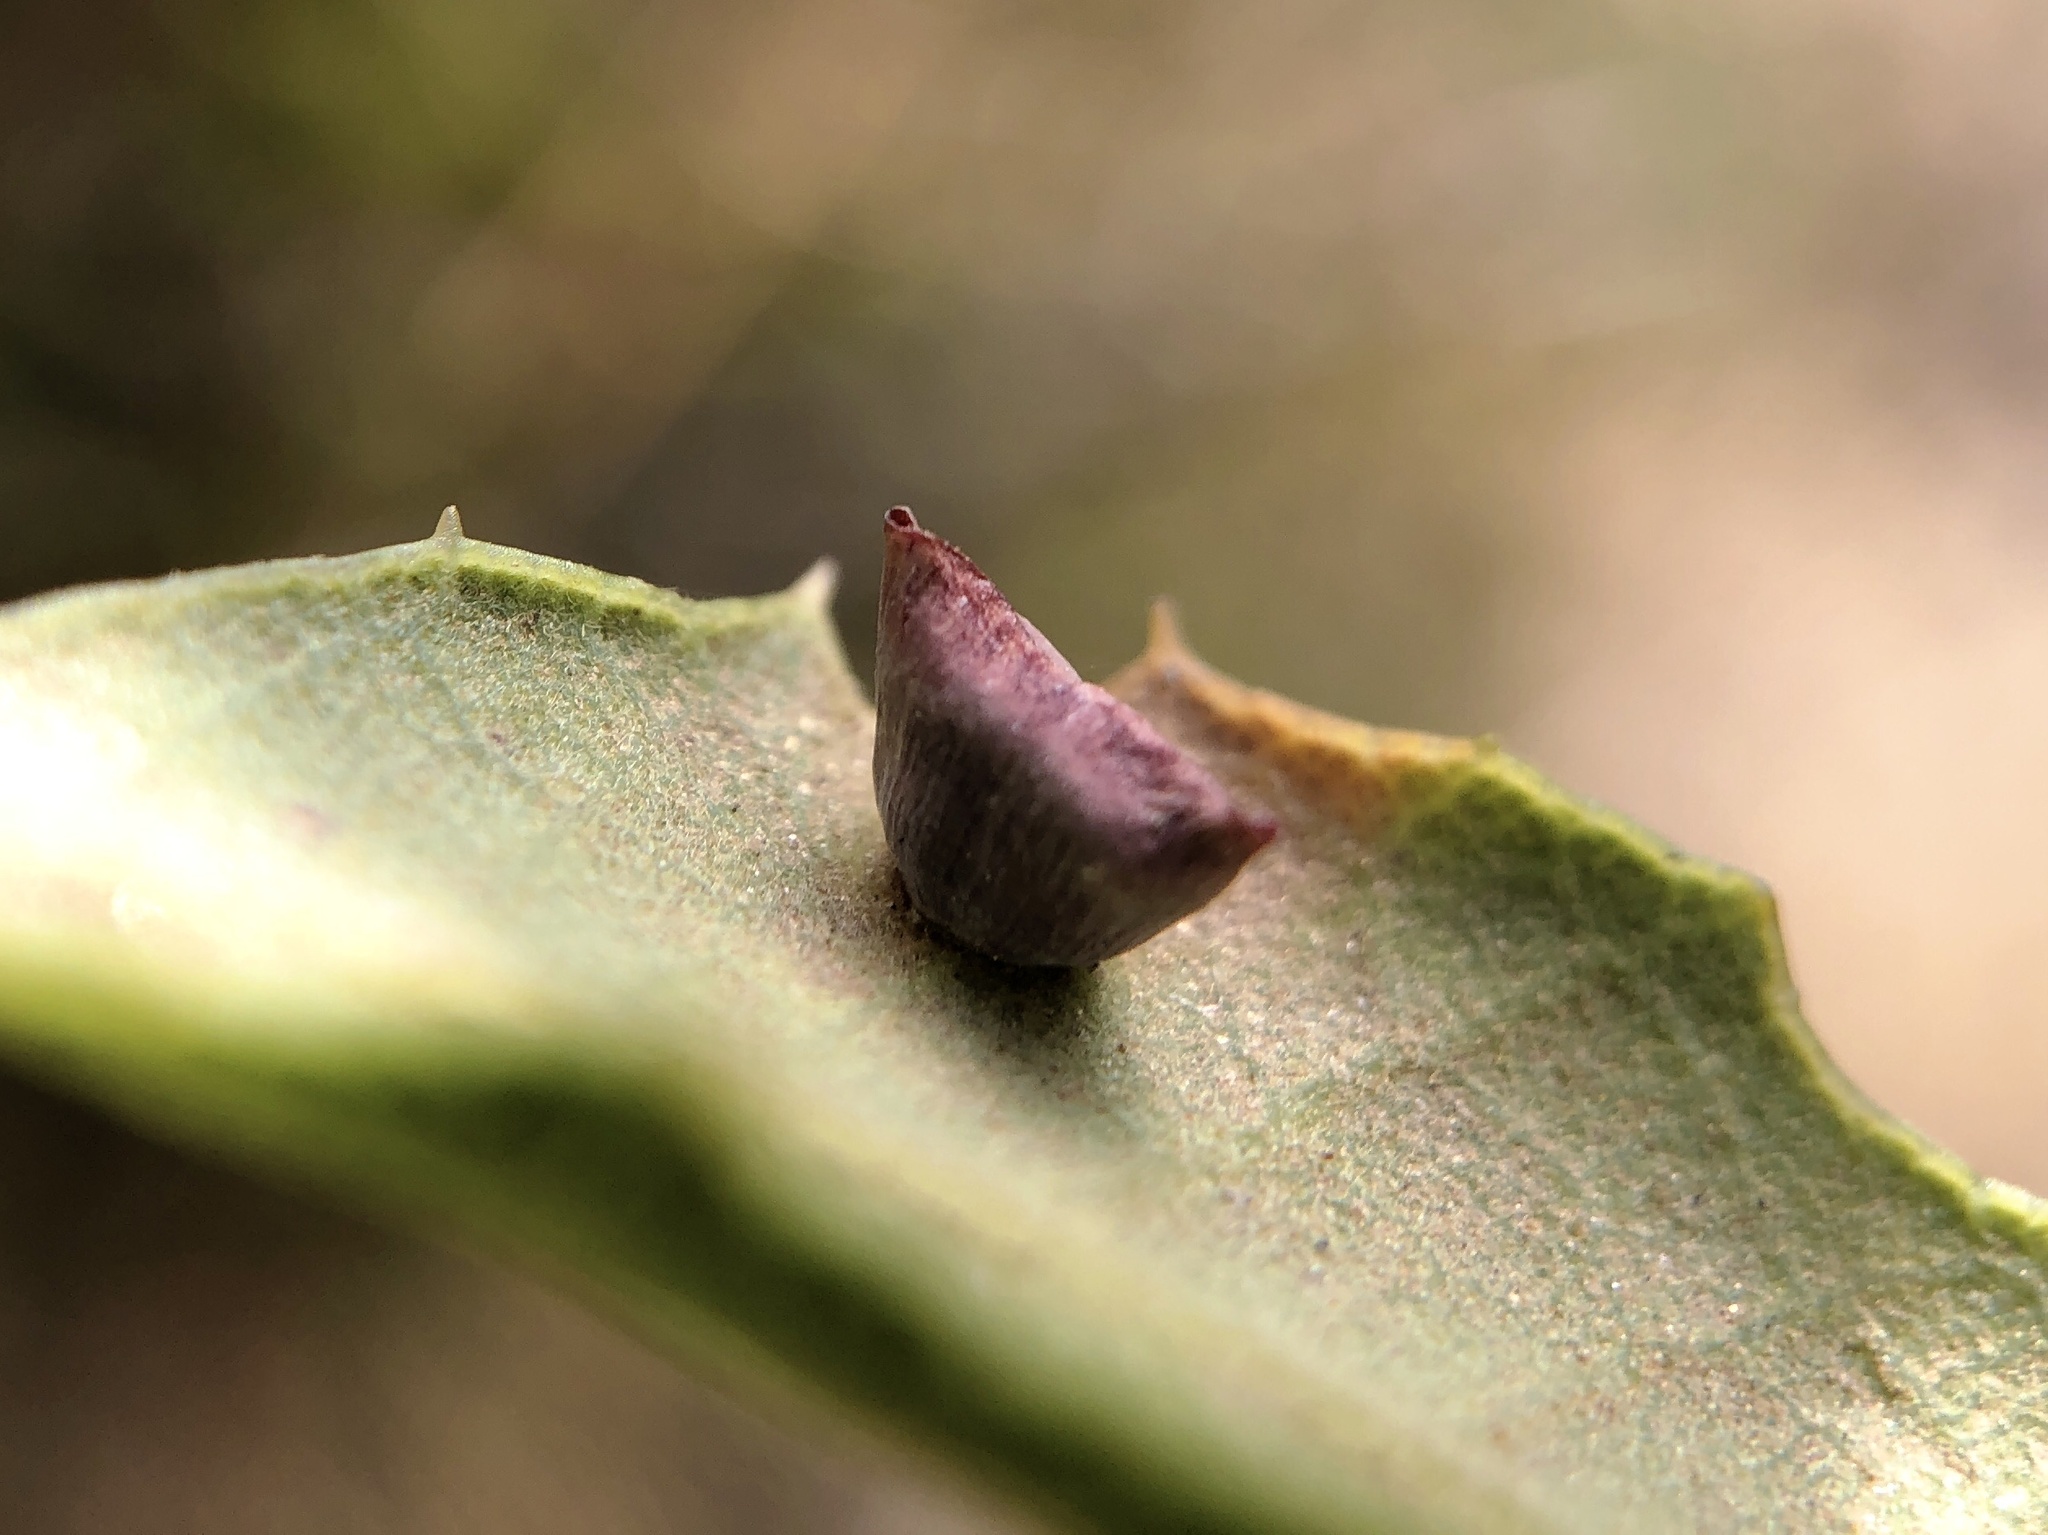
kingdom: Animalia
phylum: Arthropoda
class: Insecta
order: Hymenoptera
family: Cynipidae
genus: Andricus
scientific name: Andricus
